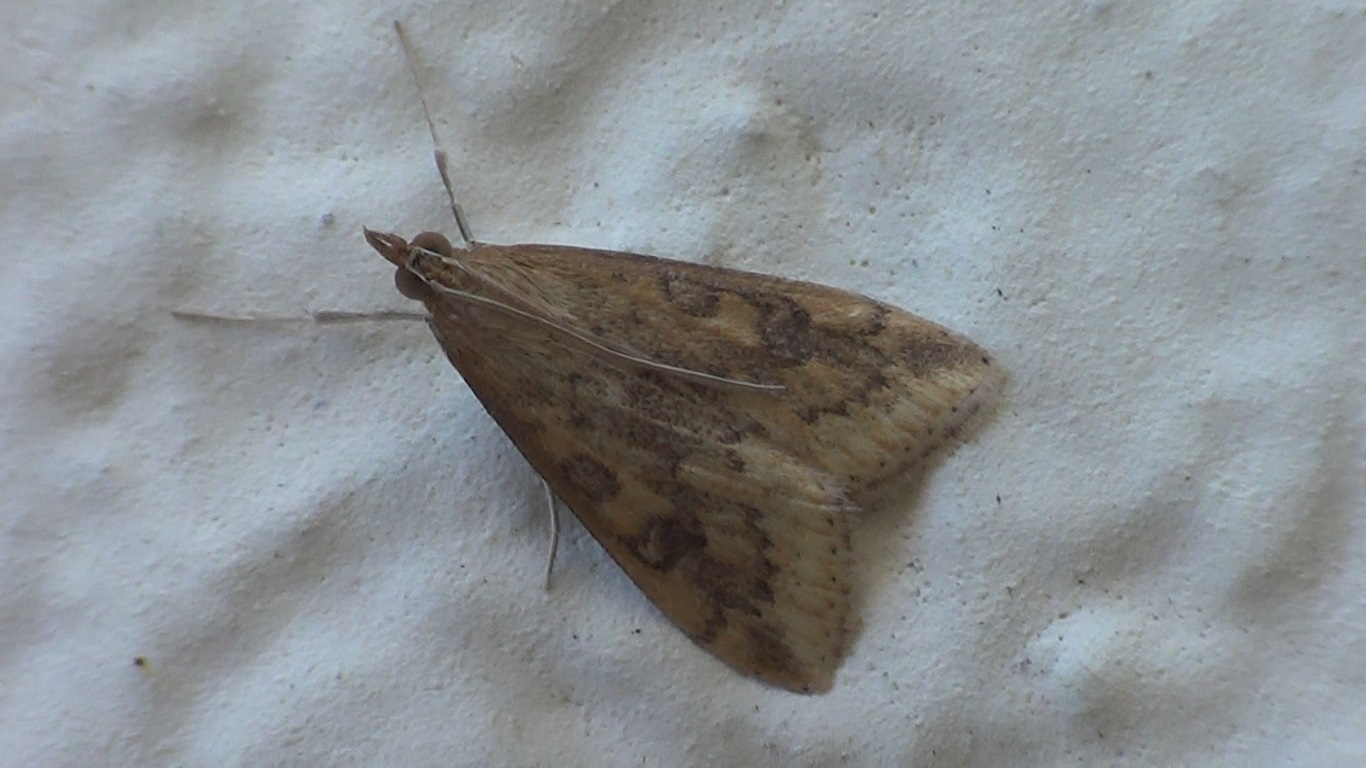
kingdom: Animalia
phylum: Arthropoda
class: Insecta
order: Lepidoptera
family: Crambidae
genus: Udea
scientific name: Udea ferrugalis
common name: Rusty dot
